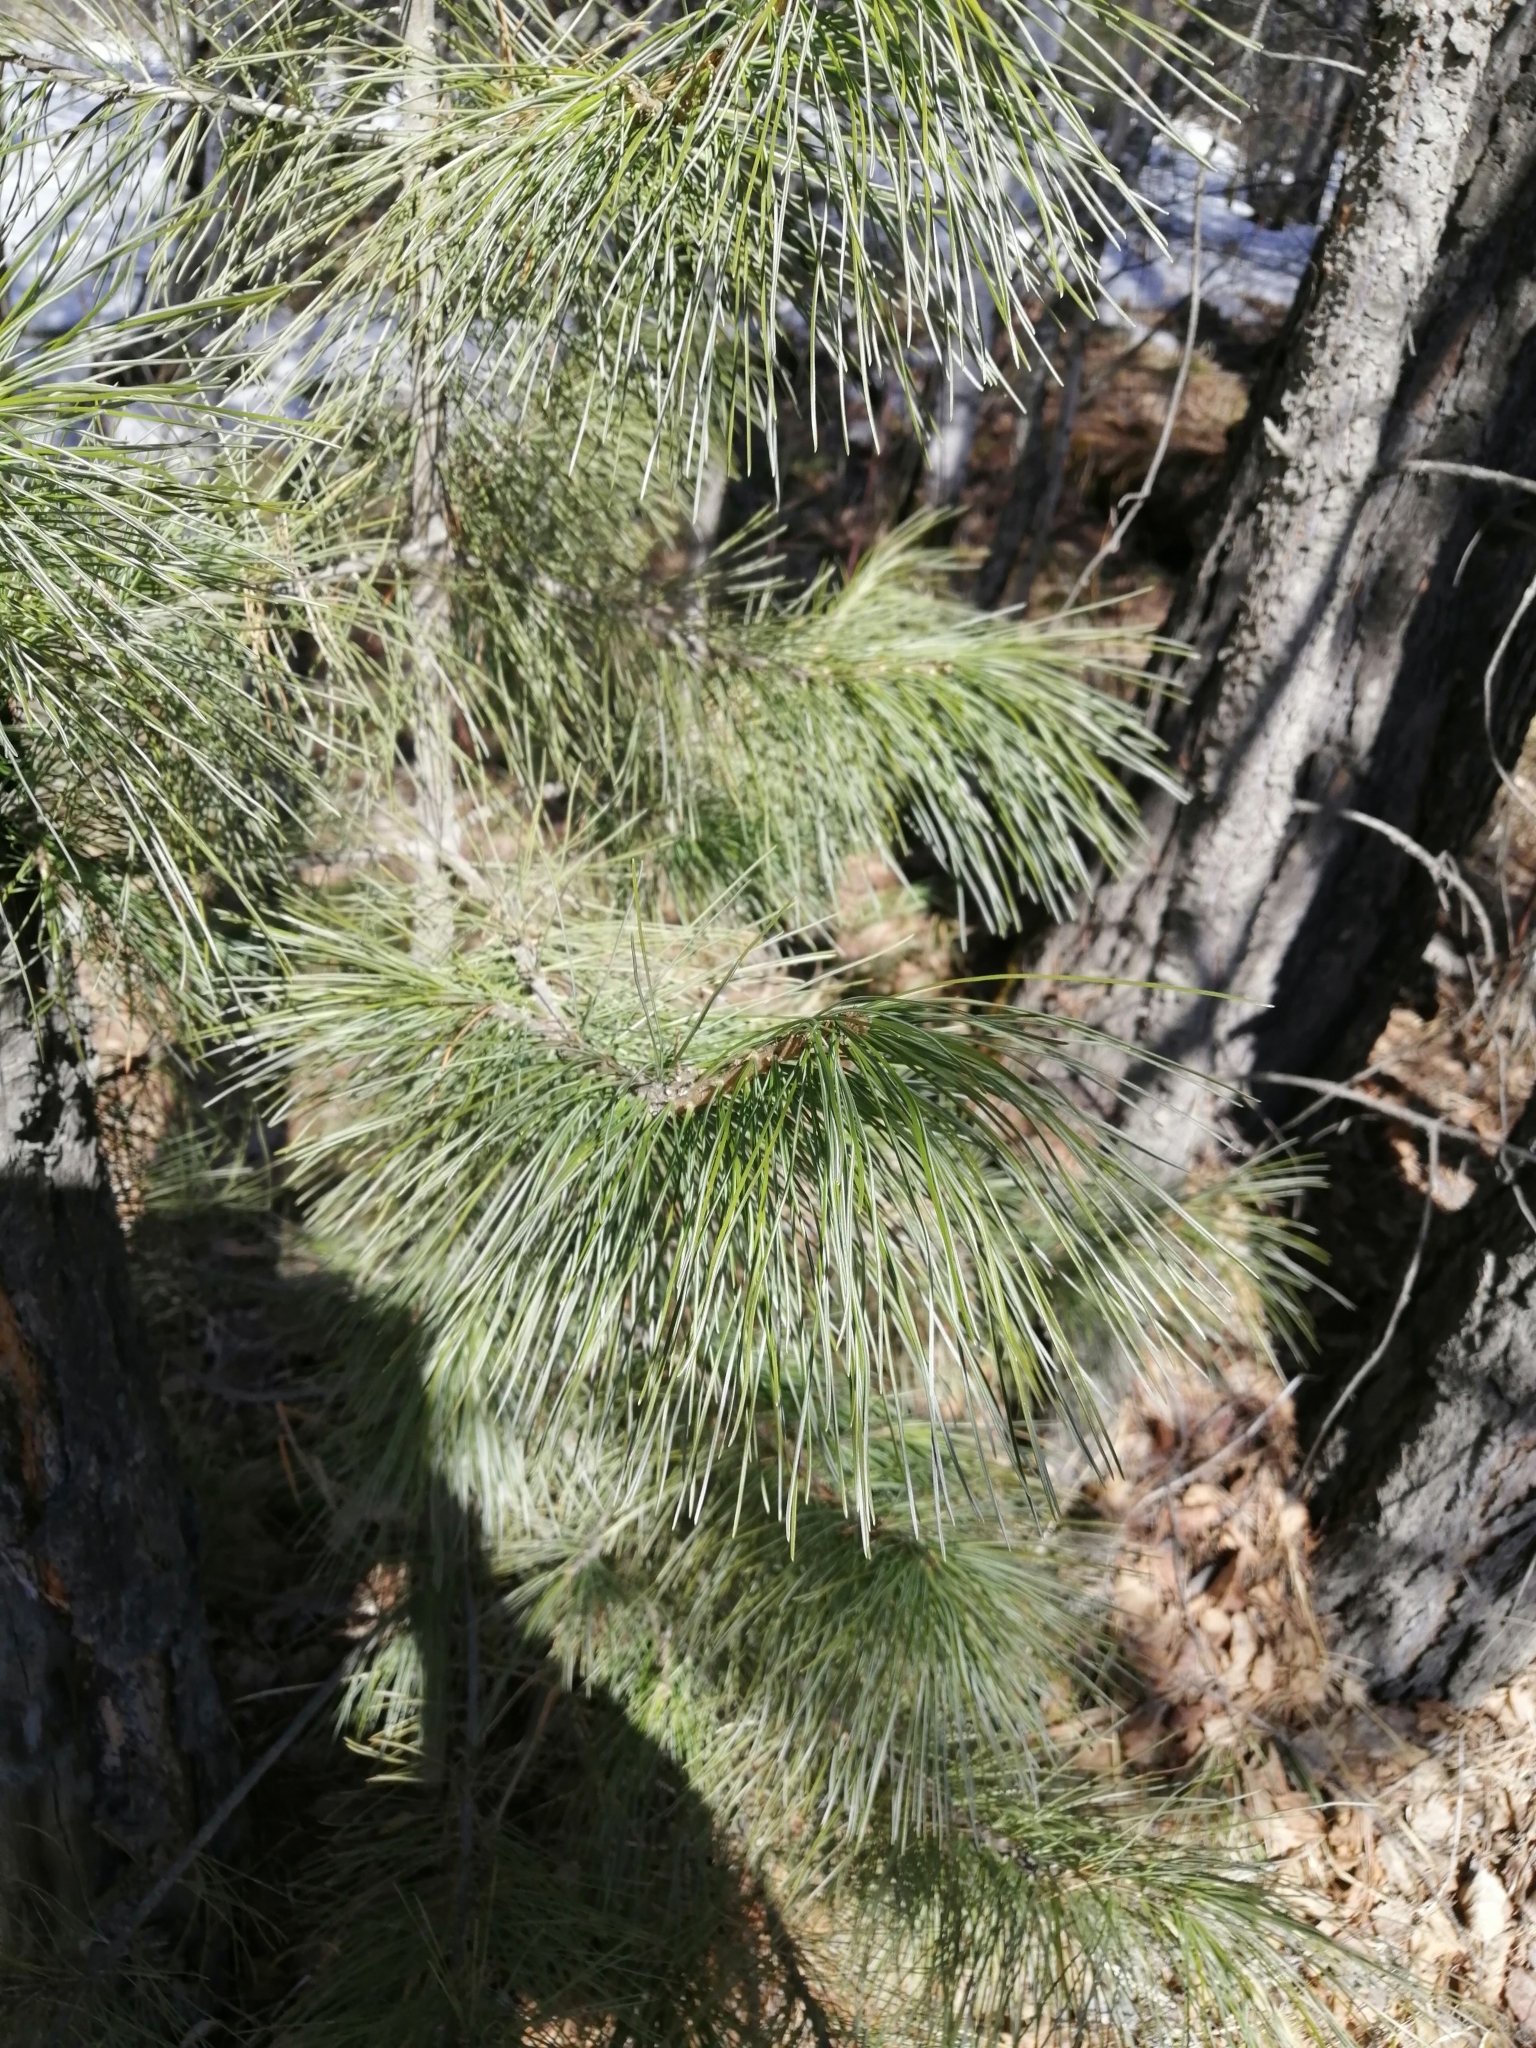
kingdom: Plantae
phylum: Tracheophyta
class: Pinopsida
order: Pinales
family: Pinaceae
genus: Pinus
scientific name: Pinus sibirica
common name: Siberian pine
